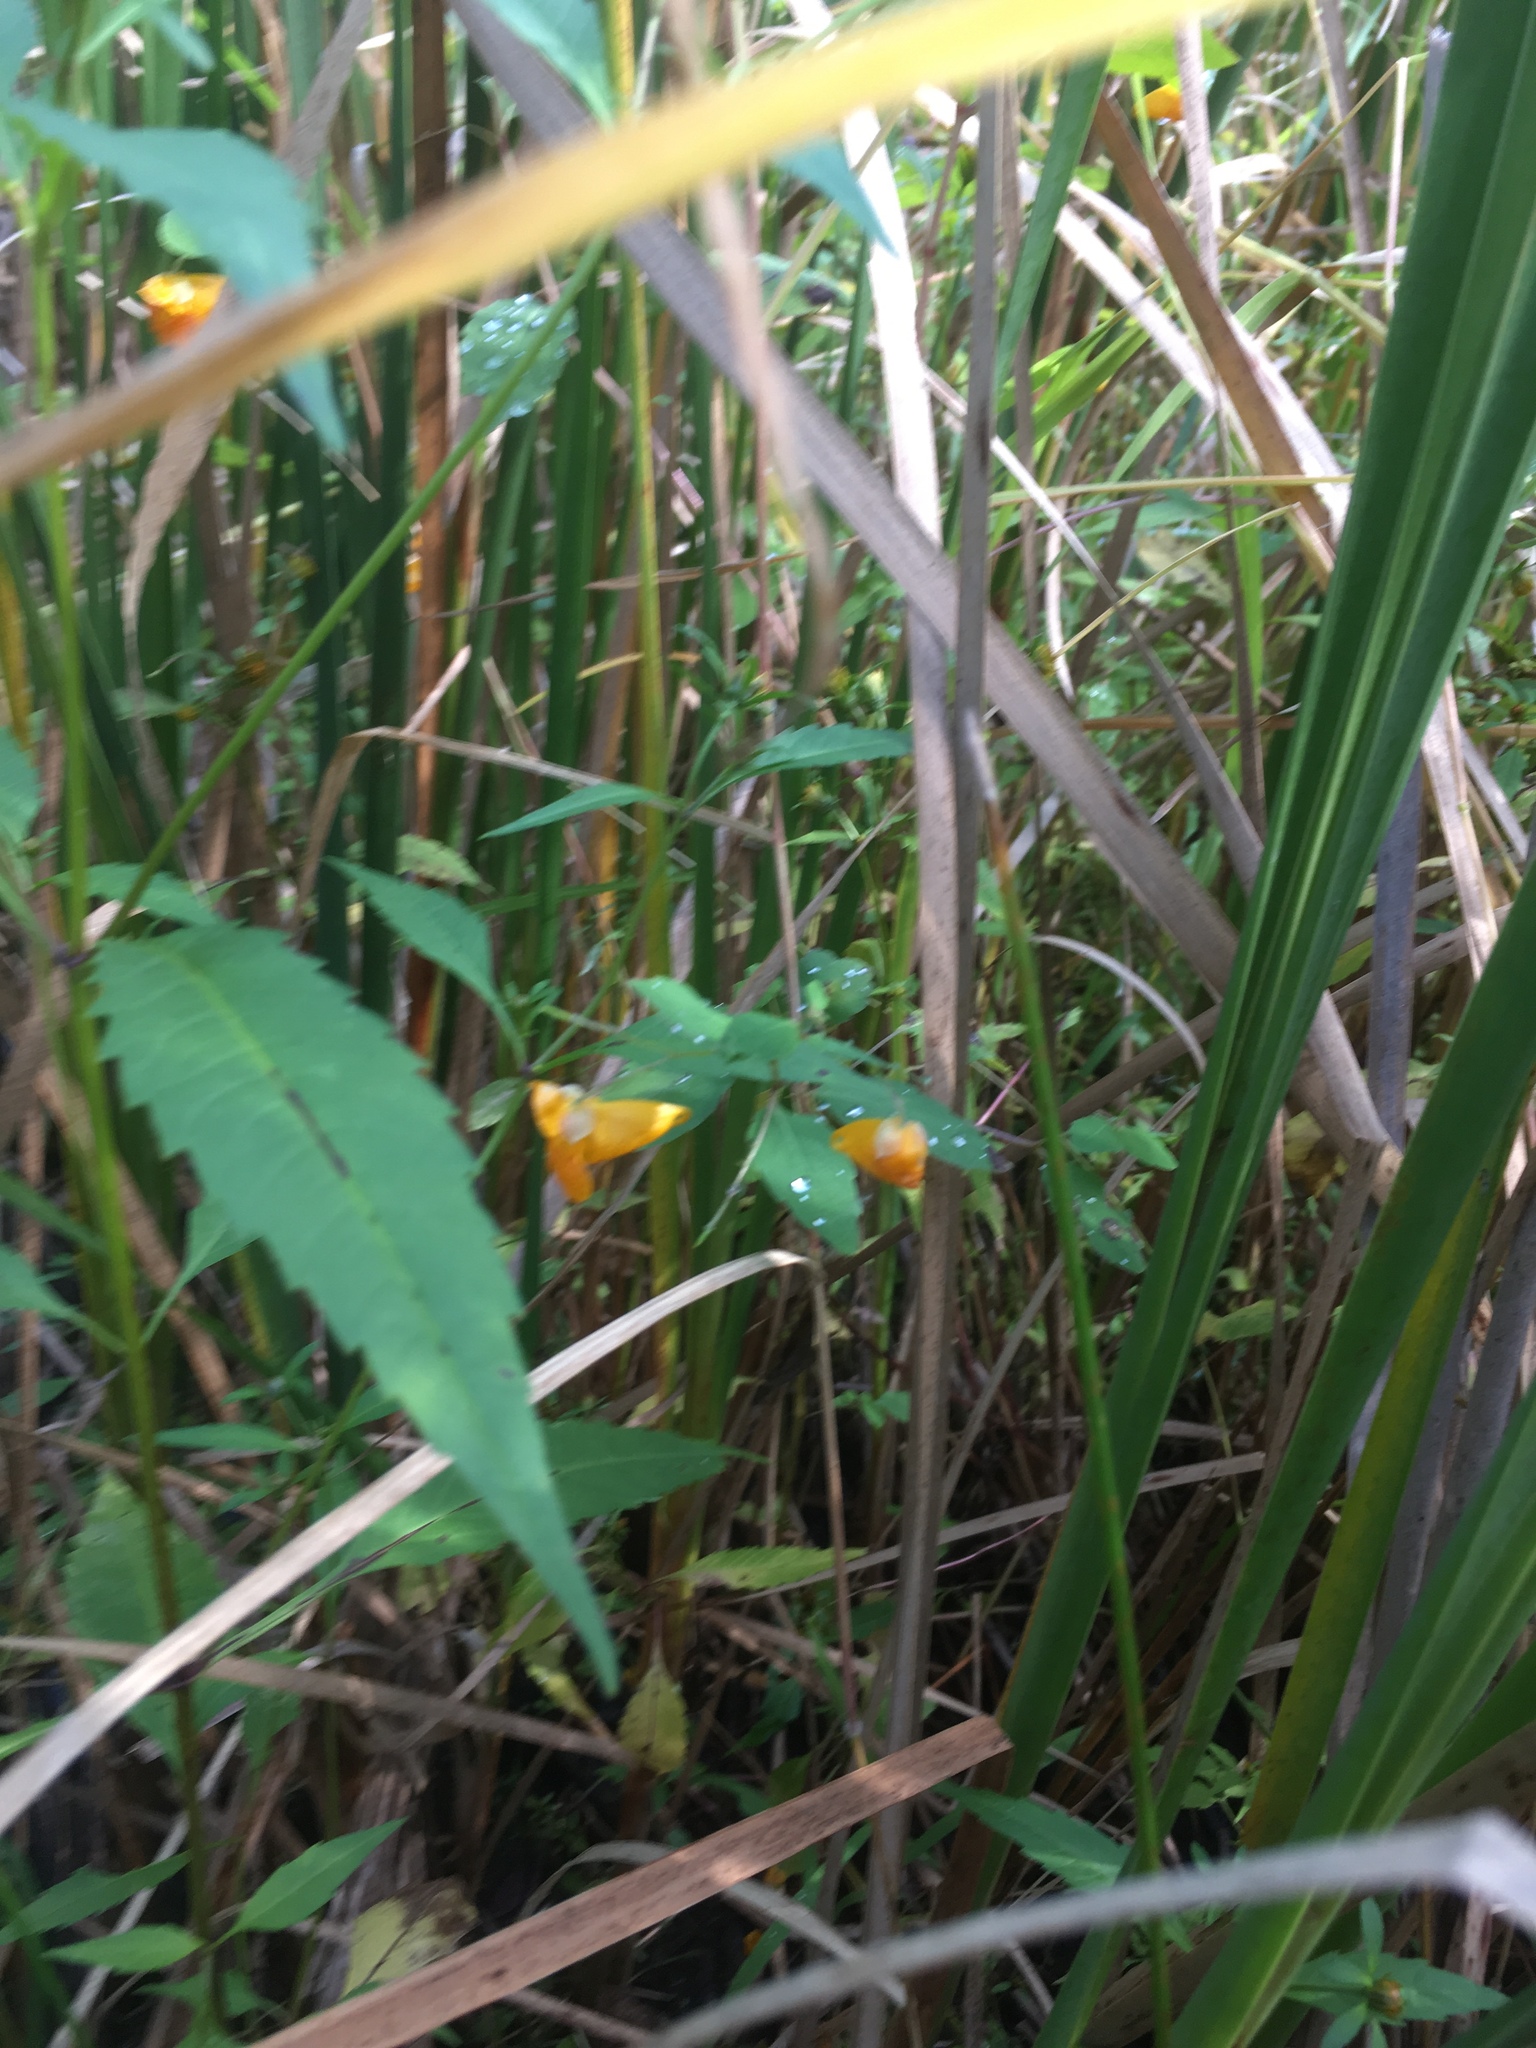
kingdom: Plantae
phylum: Tracheophyta
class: Magnoliopsida
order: Ericales
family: Balsaminaceae
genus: Impatiens
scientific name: Impatiens capensis
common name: Orange balsam
